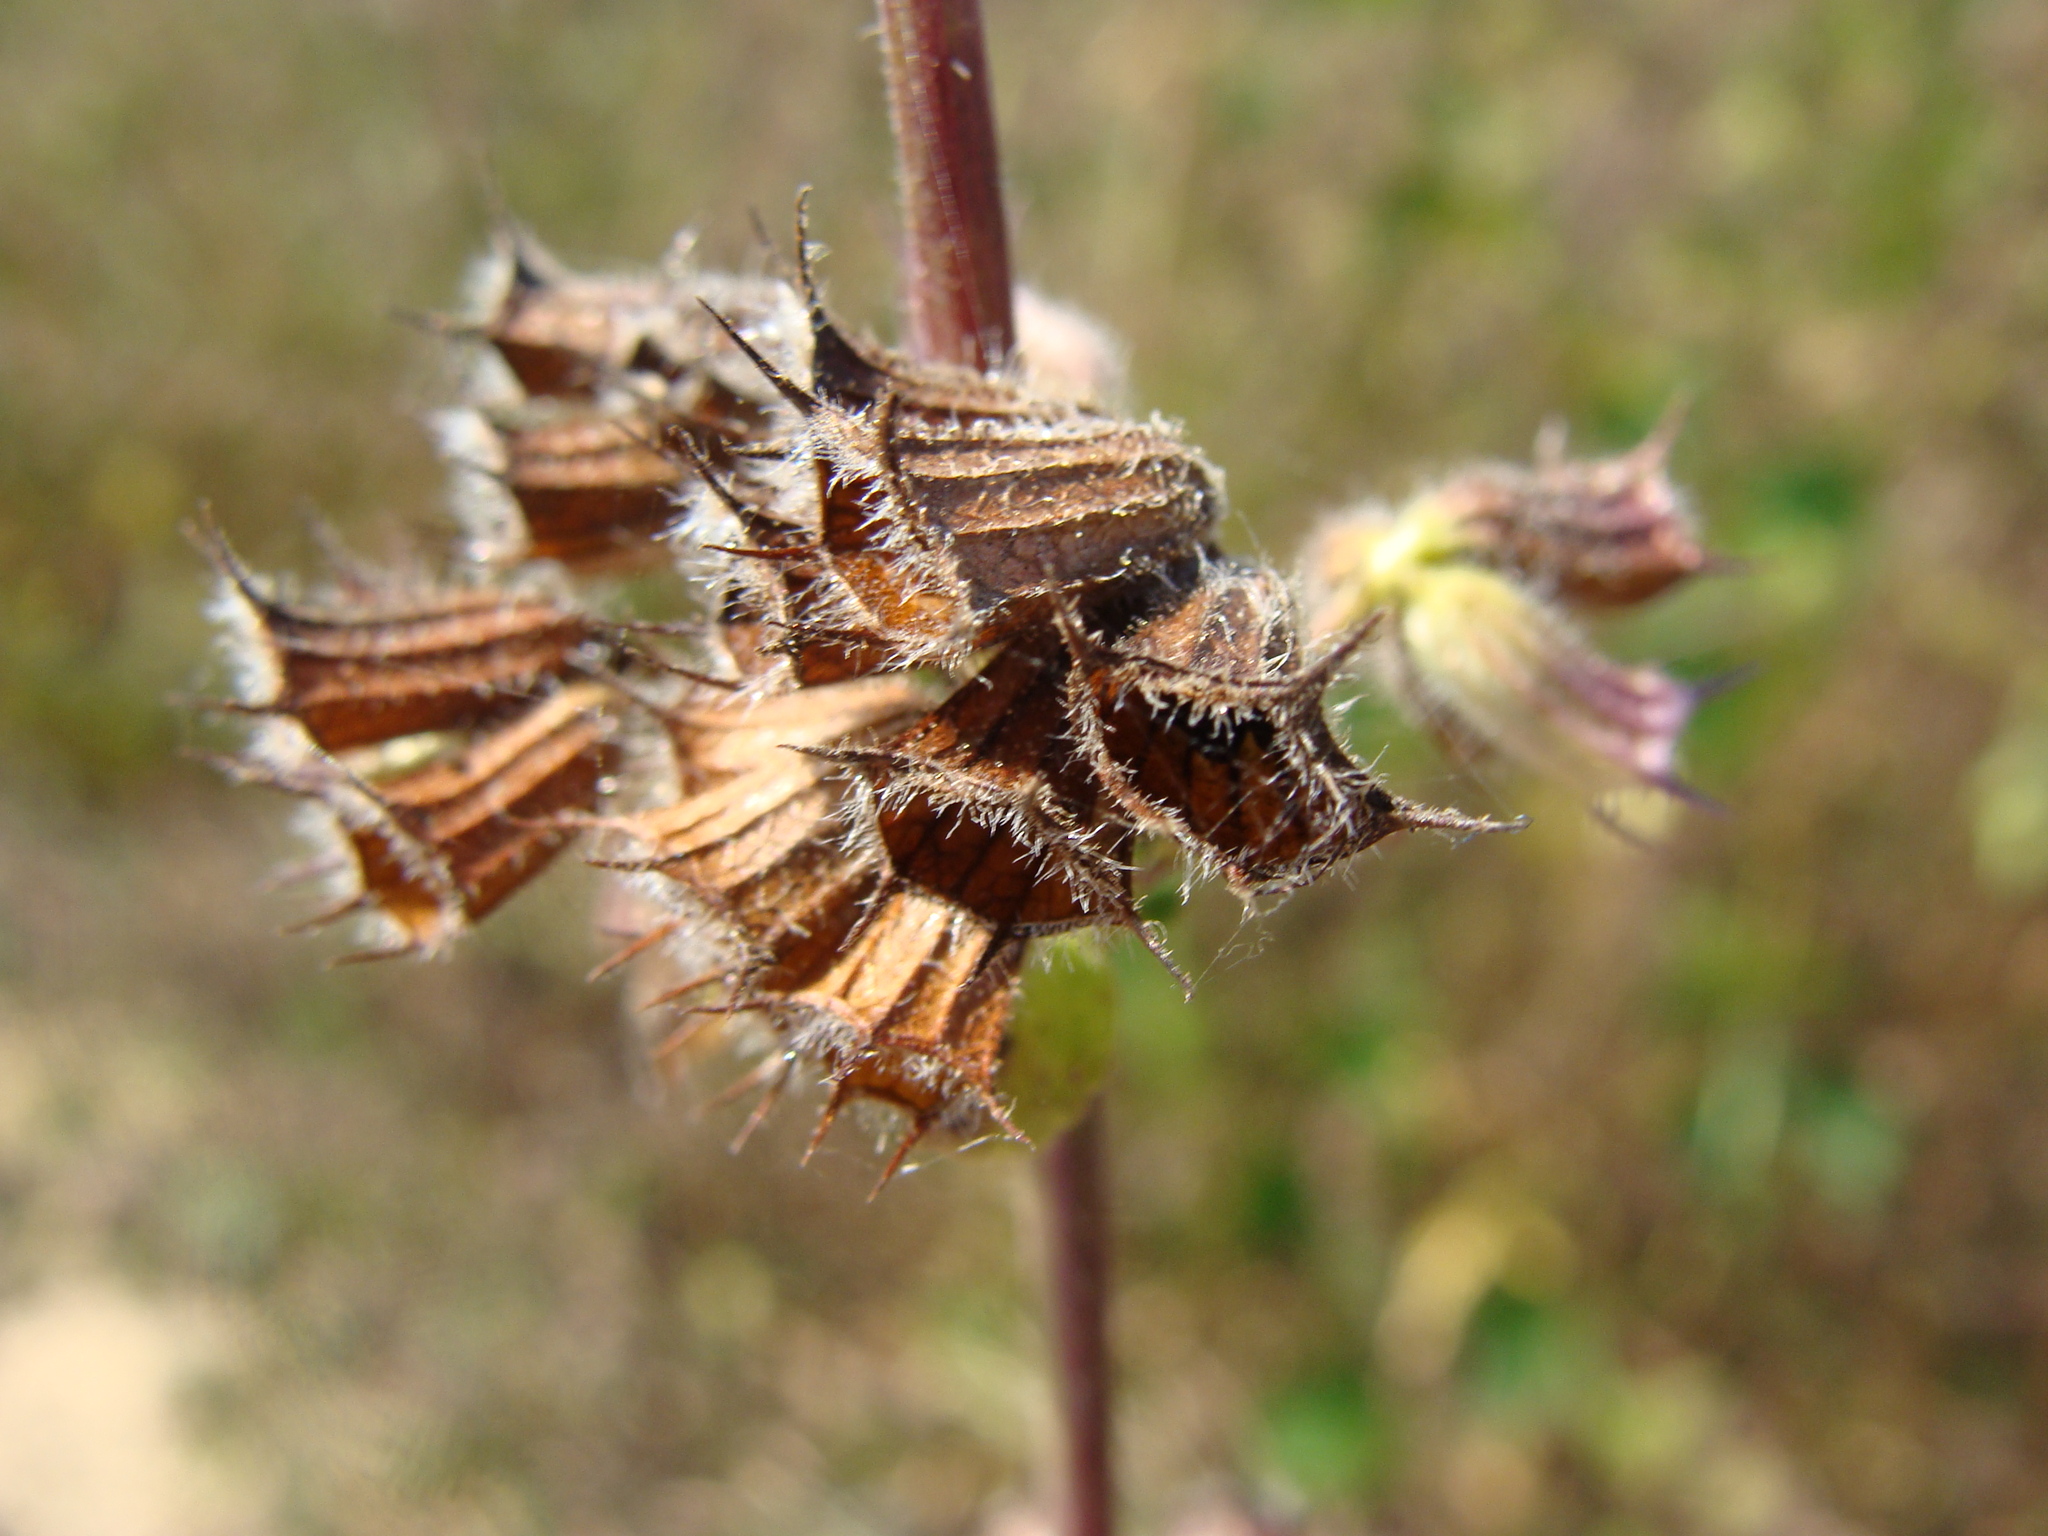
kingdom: Plantae
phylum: Tracheophyta
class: Magnoliopsida
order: Lamiales
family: Lamiaceae
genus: Mesosphaerum
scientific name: Mesosphaerum suaveolens
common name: Pignut
